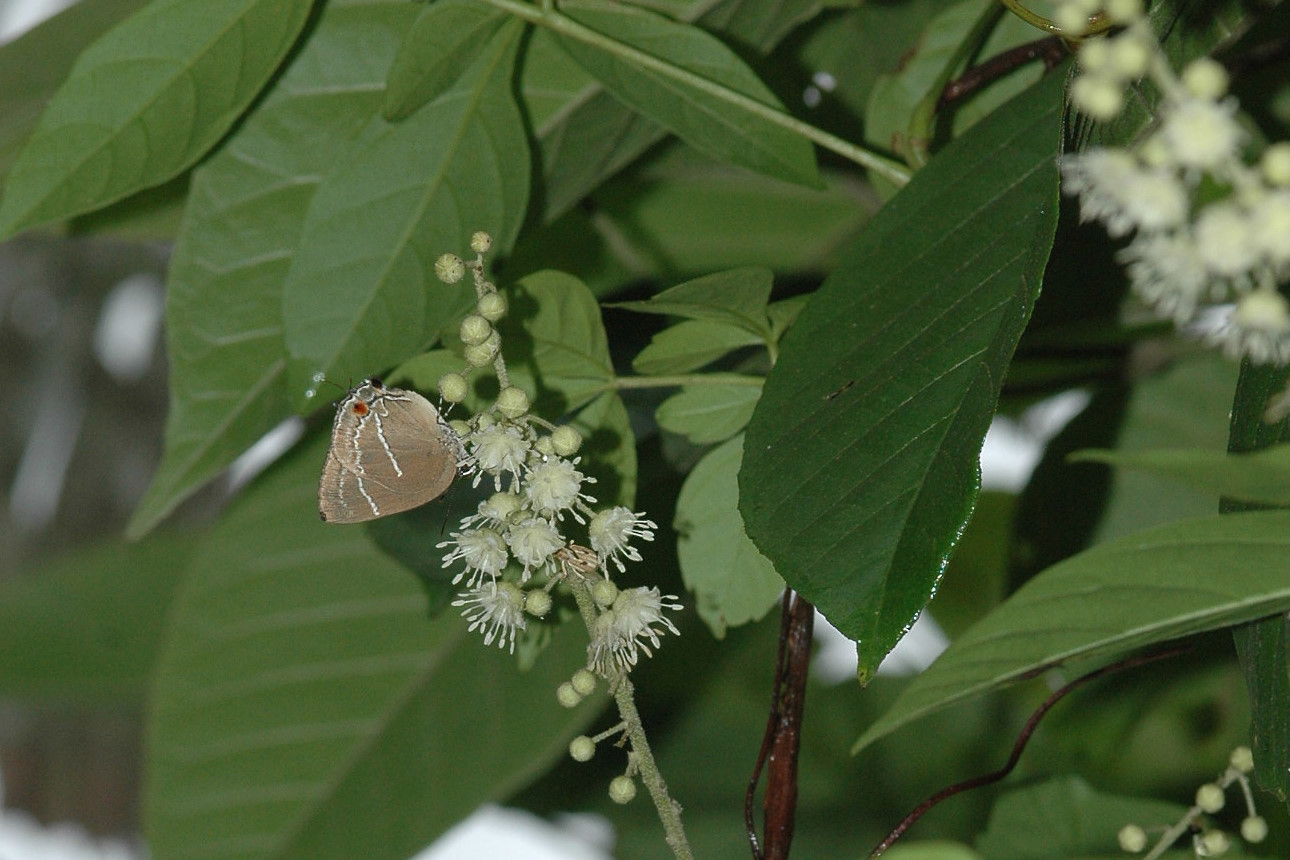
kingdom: Animalia
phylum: Arthropoda
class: Insecta
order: Lepidoptera
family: Lycaenidae
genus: Strephonota
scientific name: Strephonota
